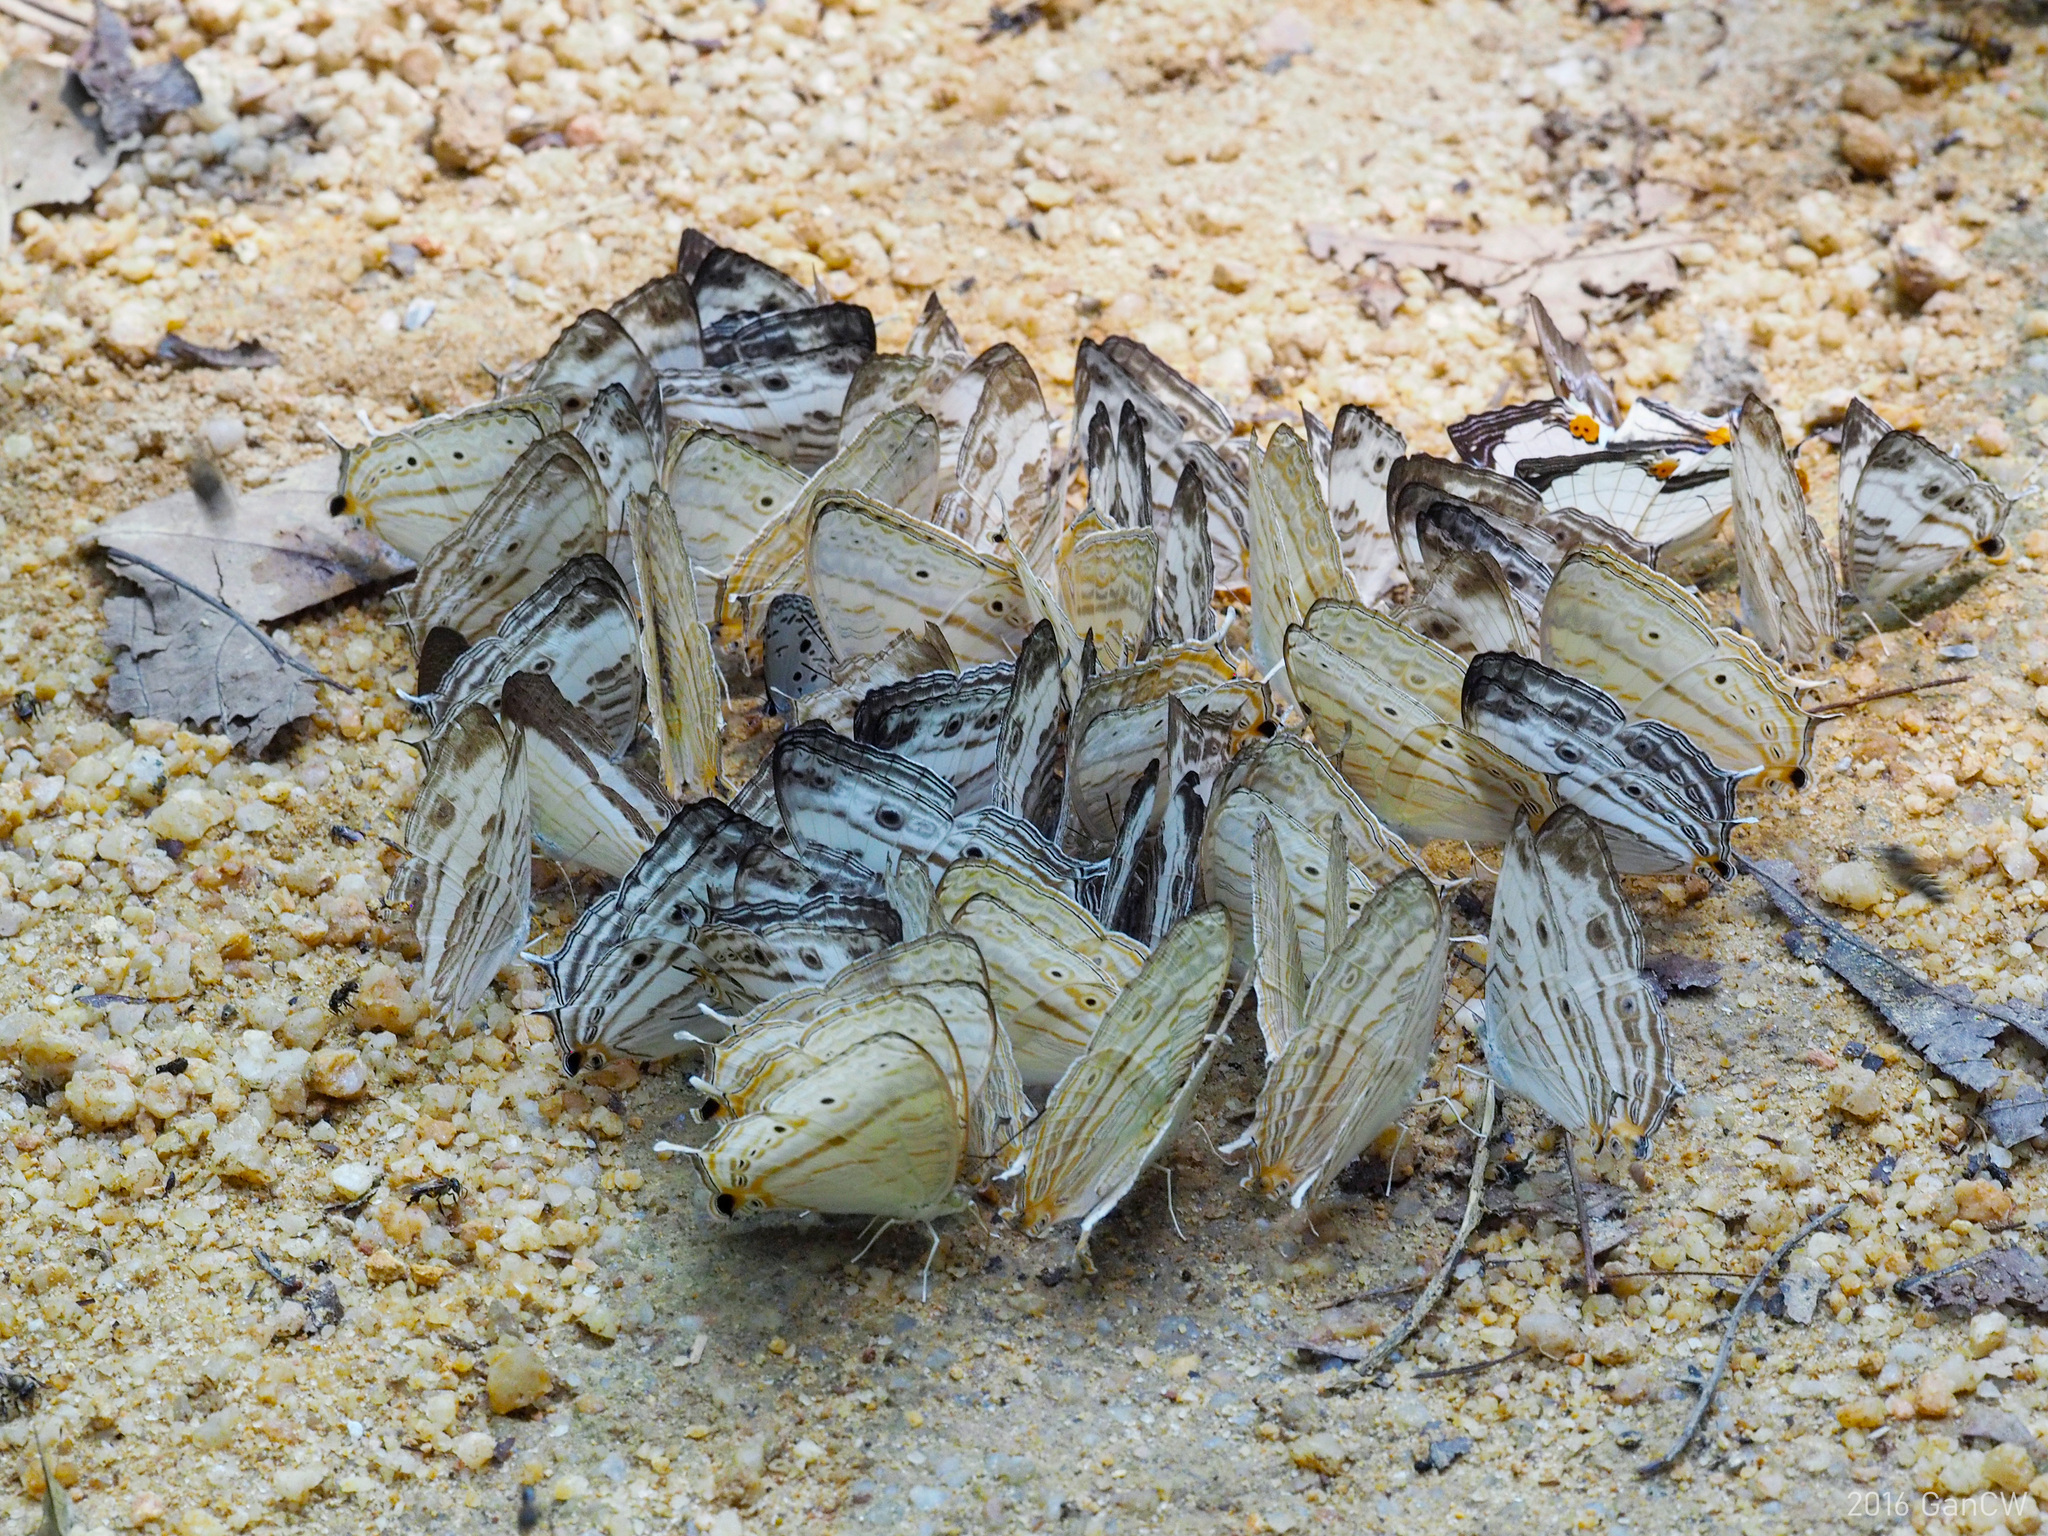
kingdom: Animalia
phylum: Arthropoda
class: Insecta
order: Lepidoptera
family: Nymphalidae
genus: Cyrestis
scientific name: Cyrestis cocles
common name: Marbled map
